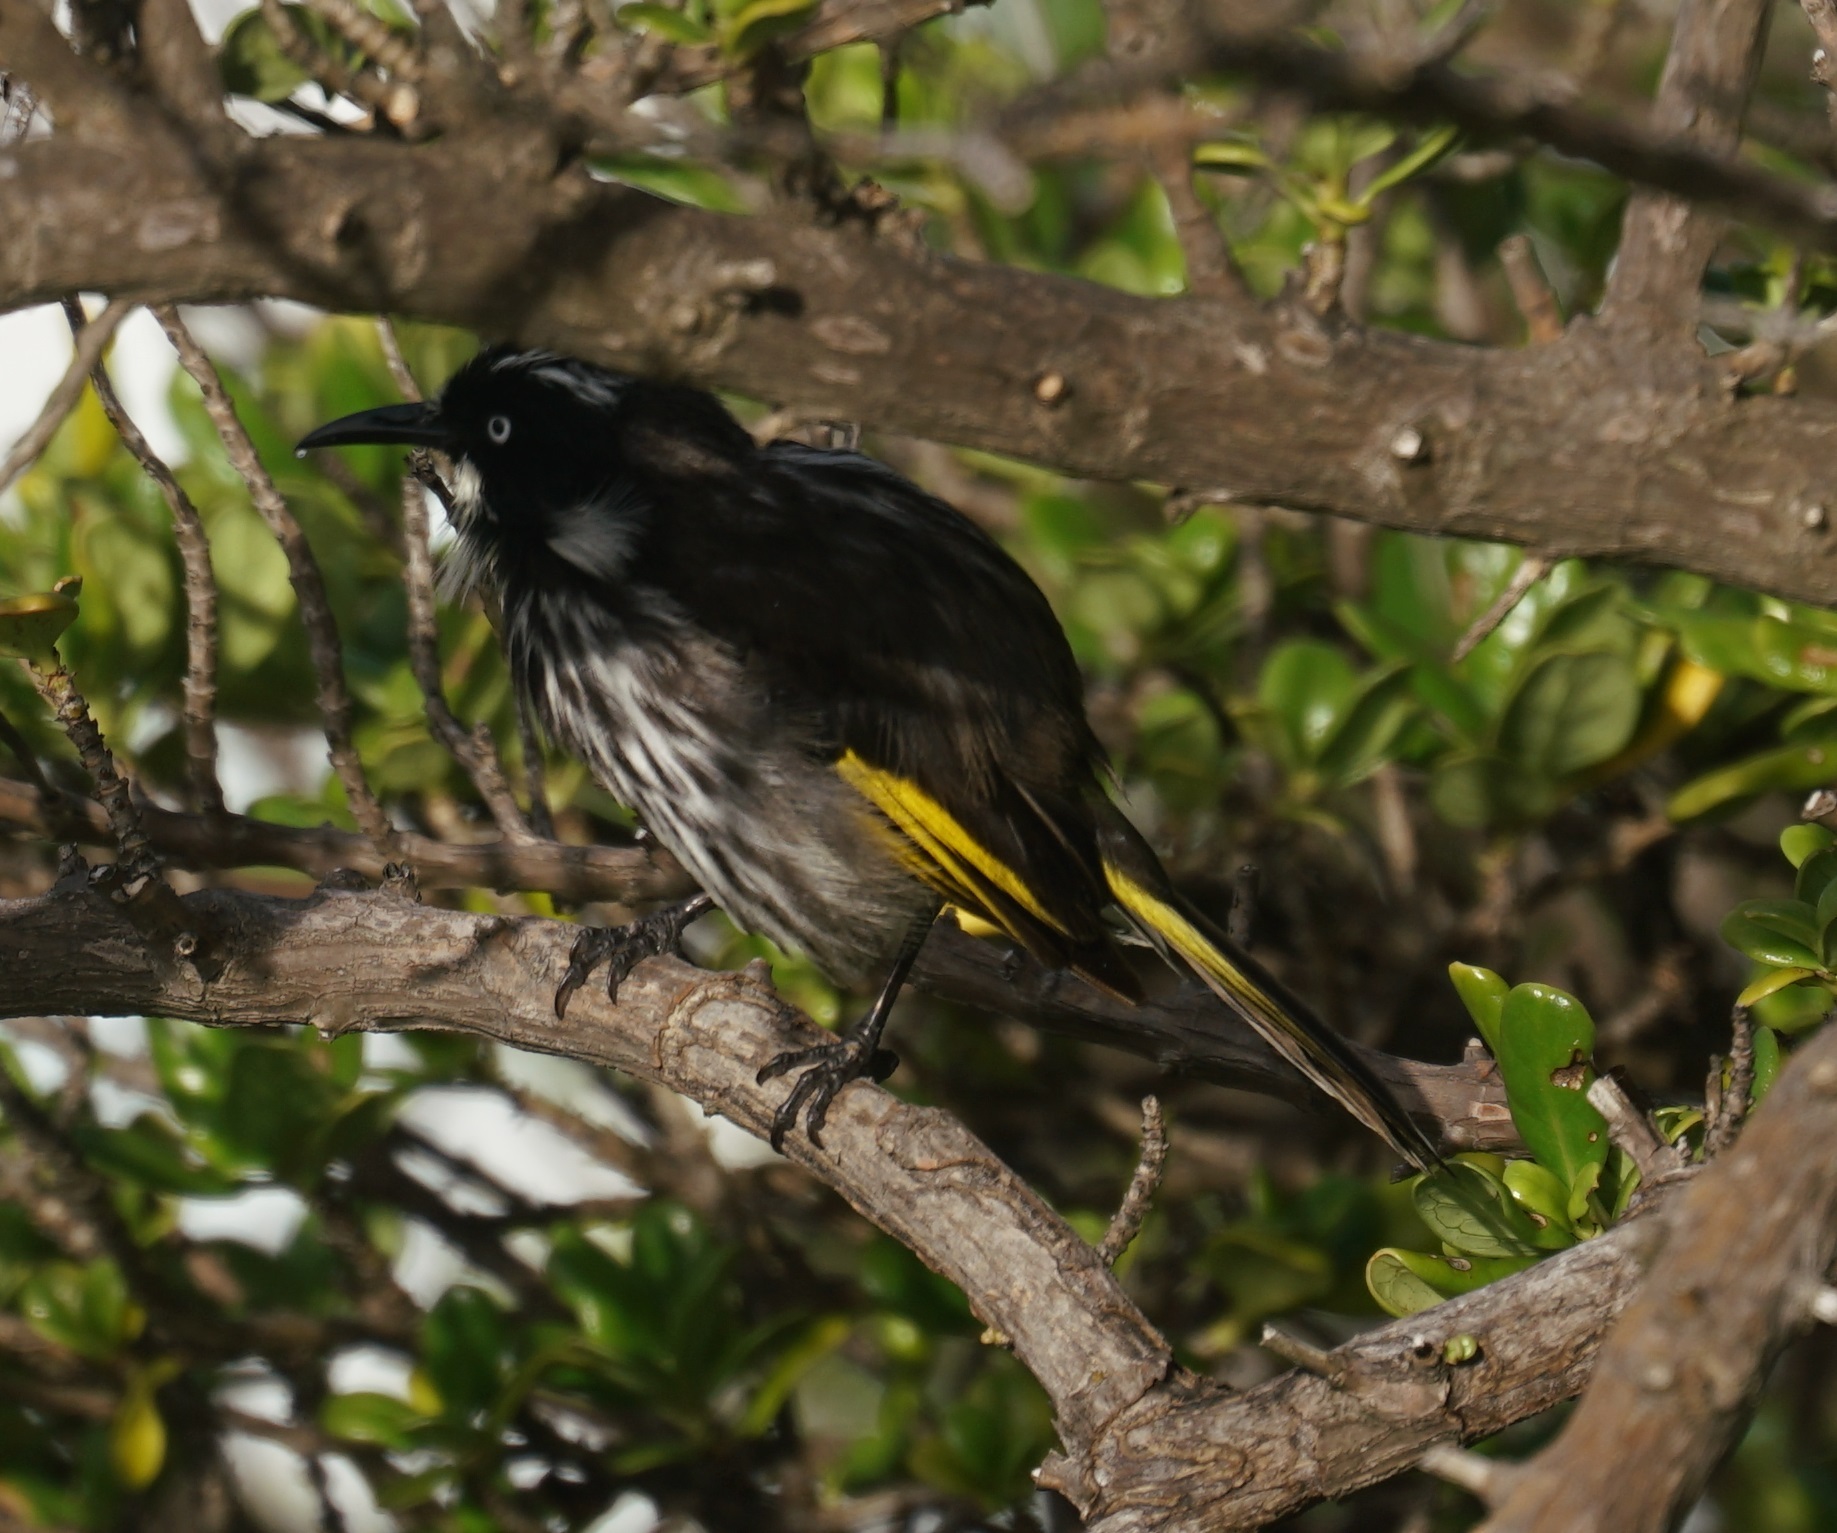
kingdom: Animalia
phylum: Chordata
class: Aves
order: Passeriformes
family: Meliphagidae
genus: Phylidonyris
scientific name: Phylidonyris novaehollandiae
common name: New holland honeyeater
